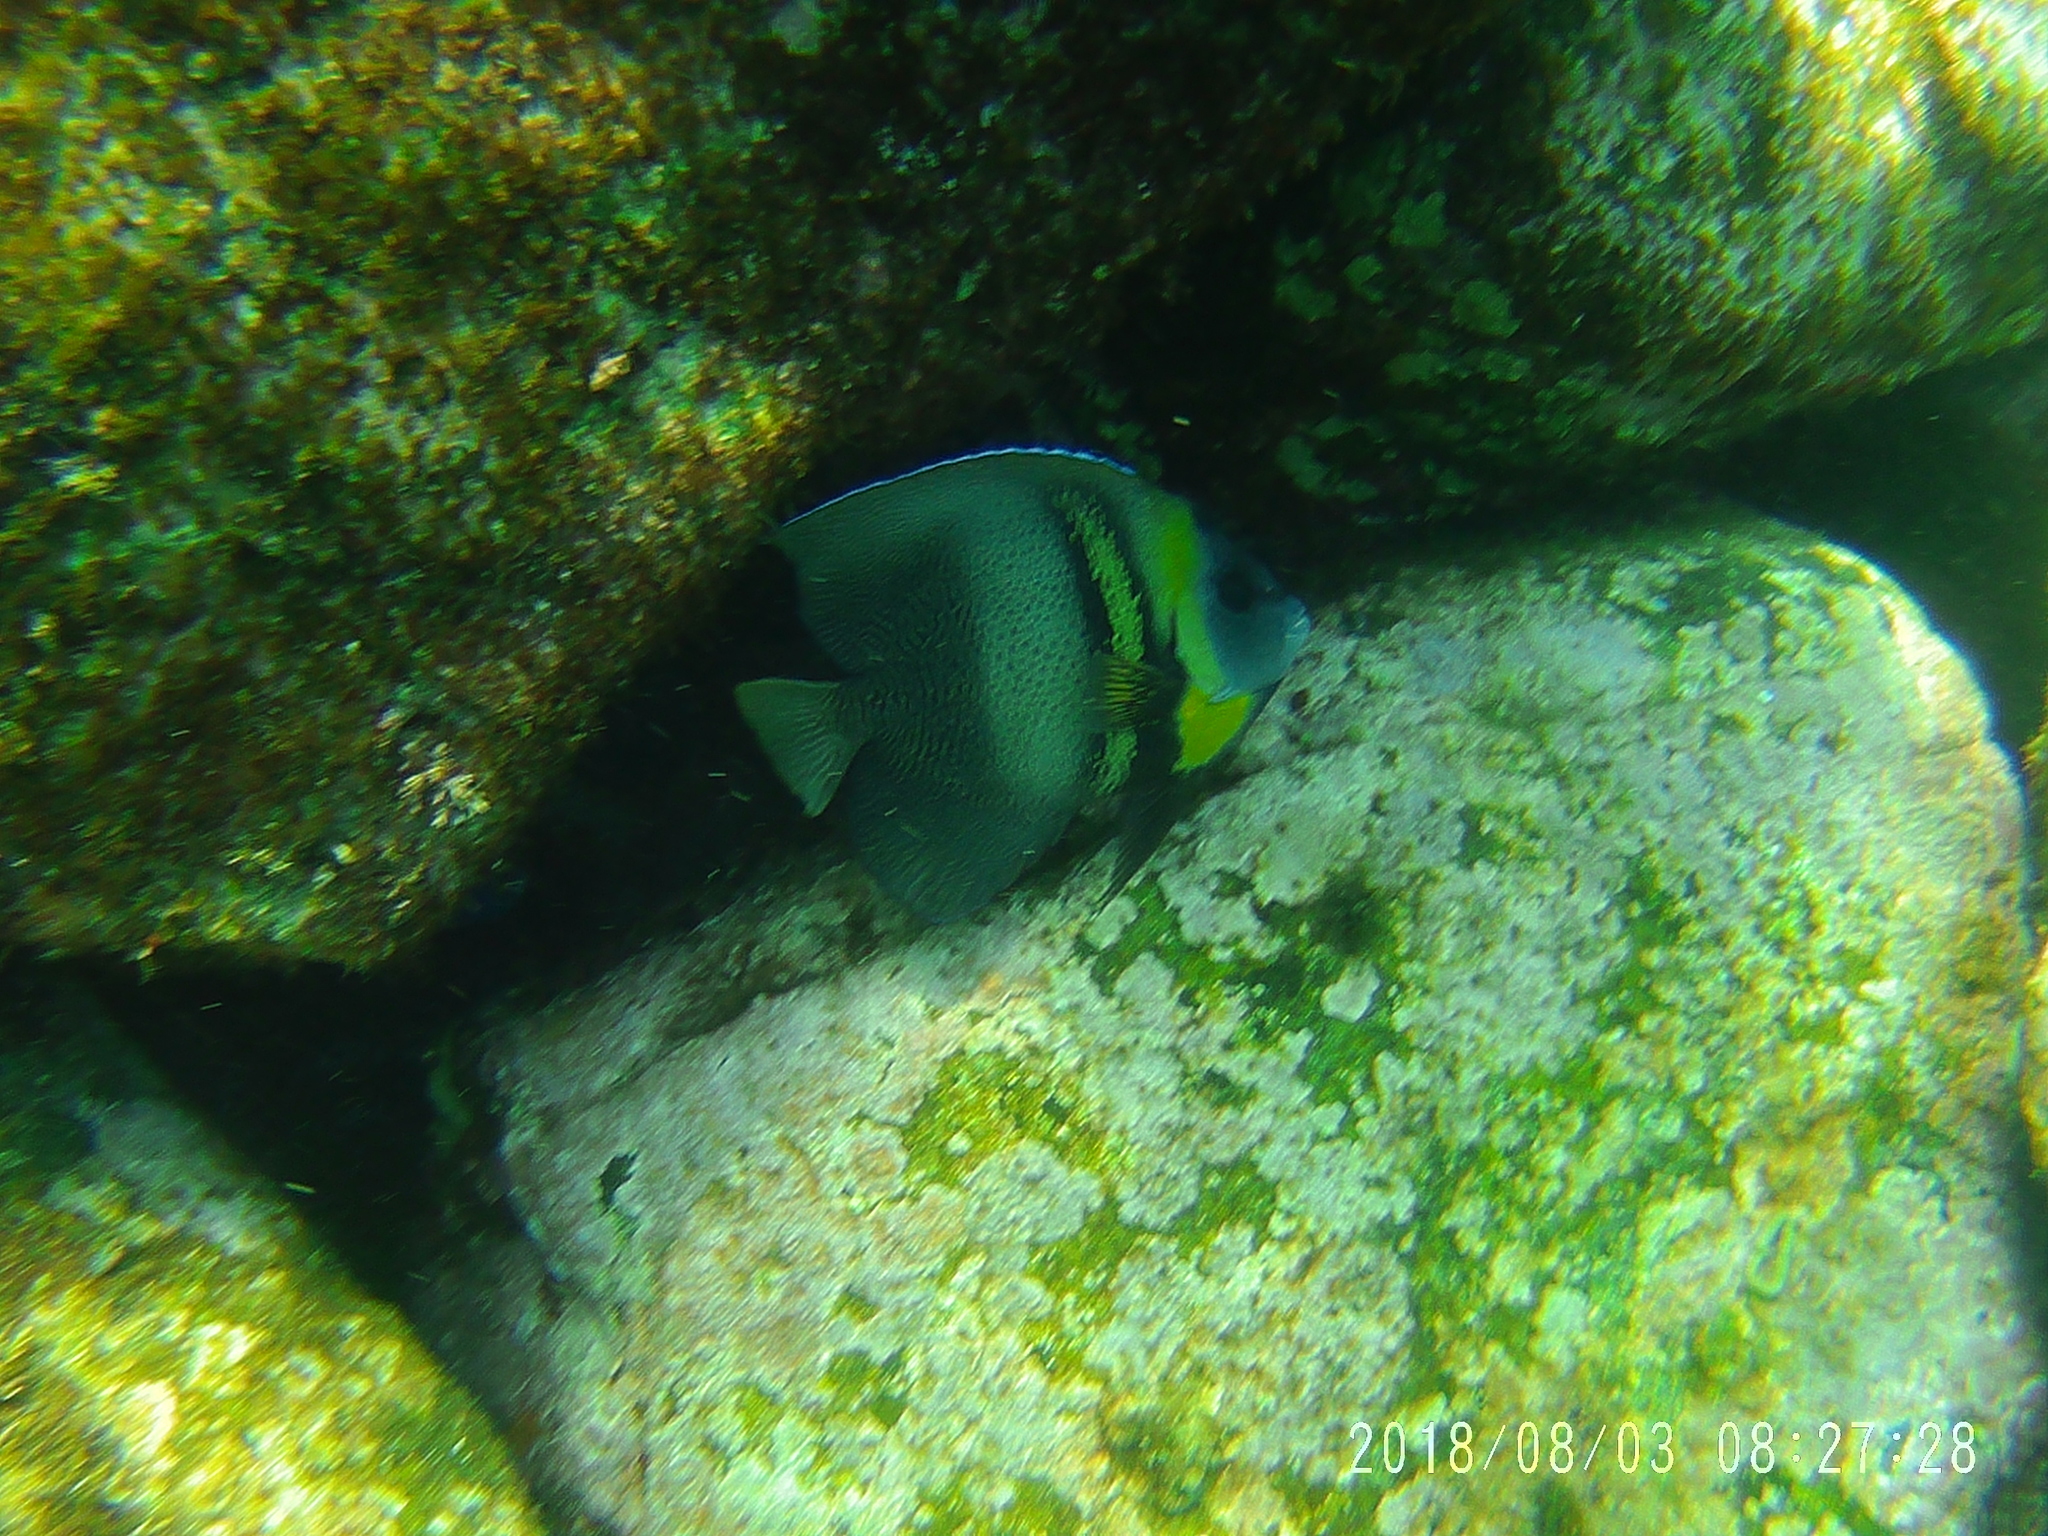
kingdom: Animalia
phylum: Chordata
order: Perciformes
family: Pomacanthidae
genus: Pomacanthus
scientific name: Pomacanthus zonipectus
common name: Cortez angelfish
